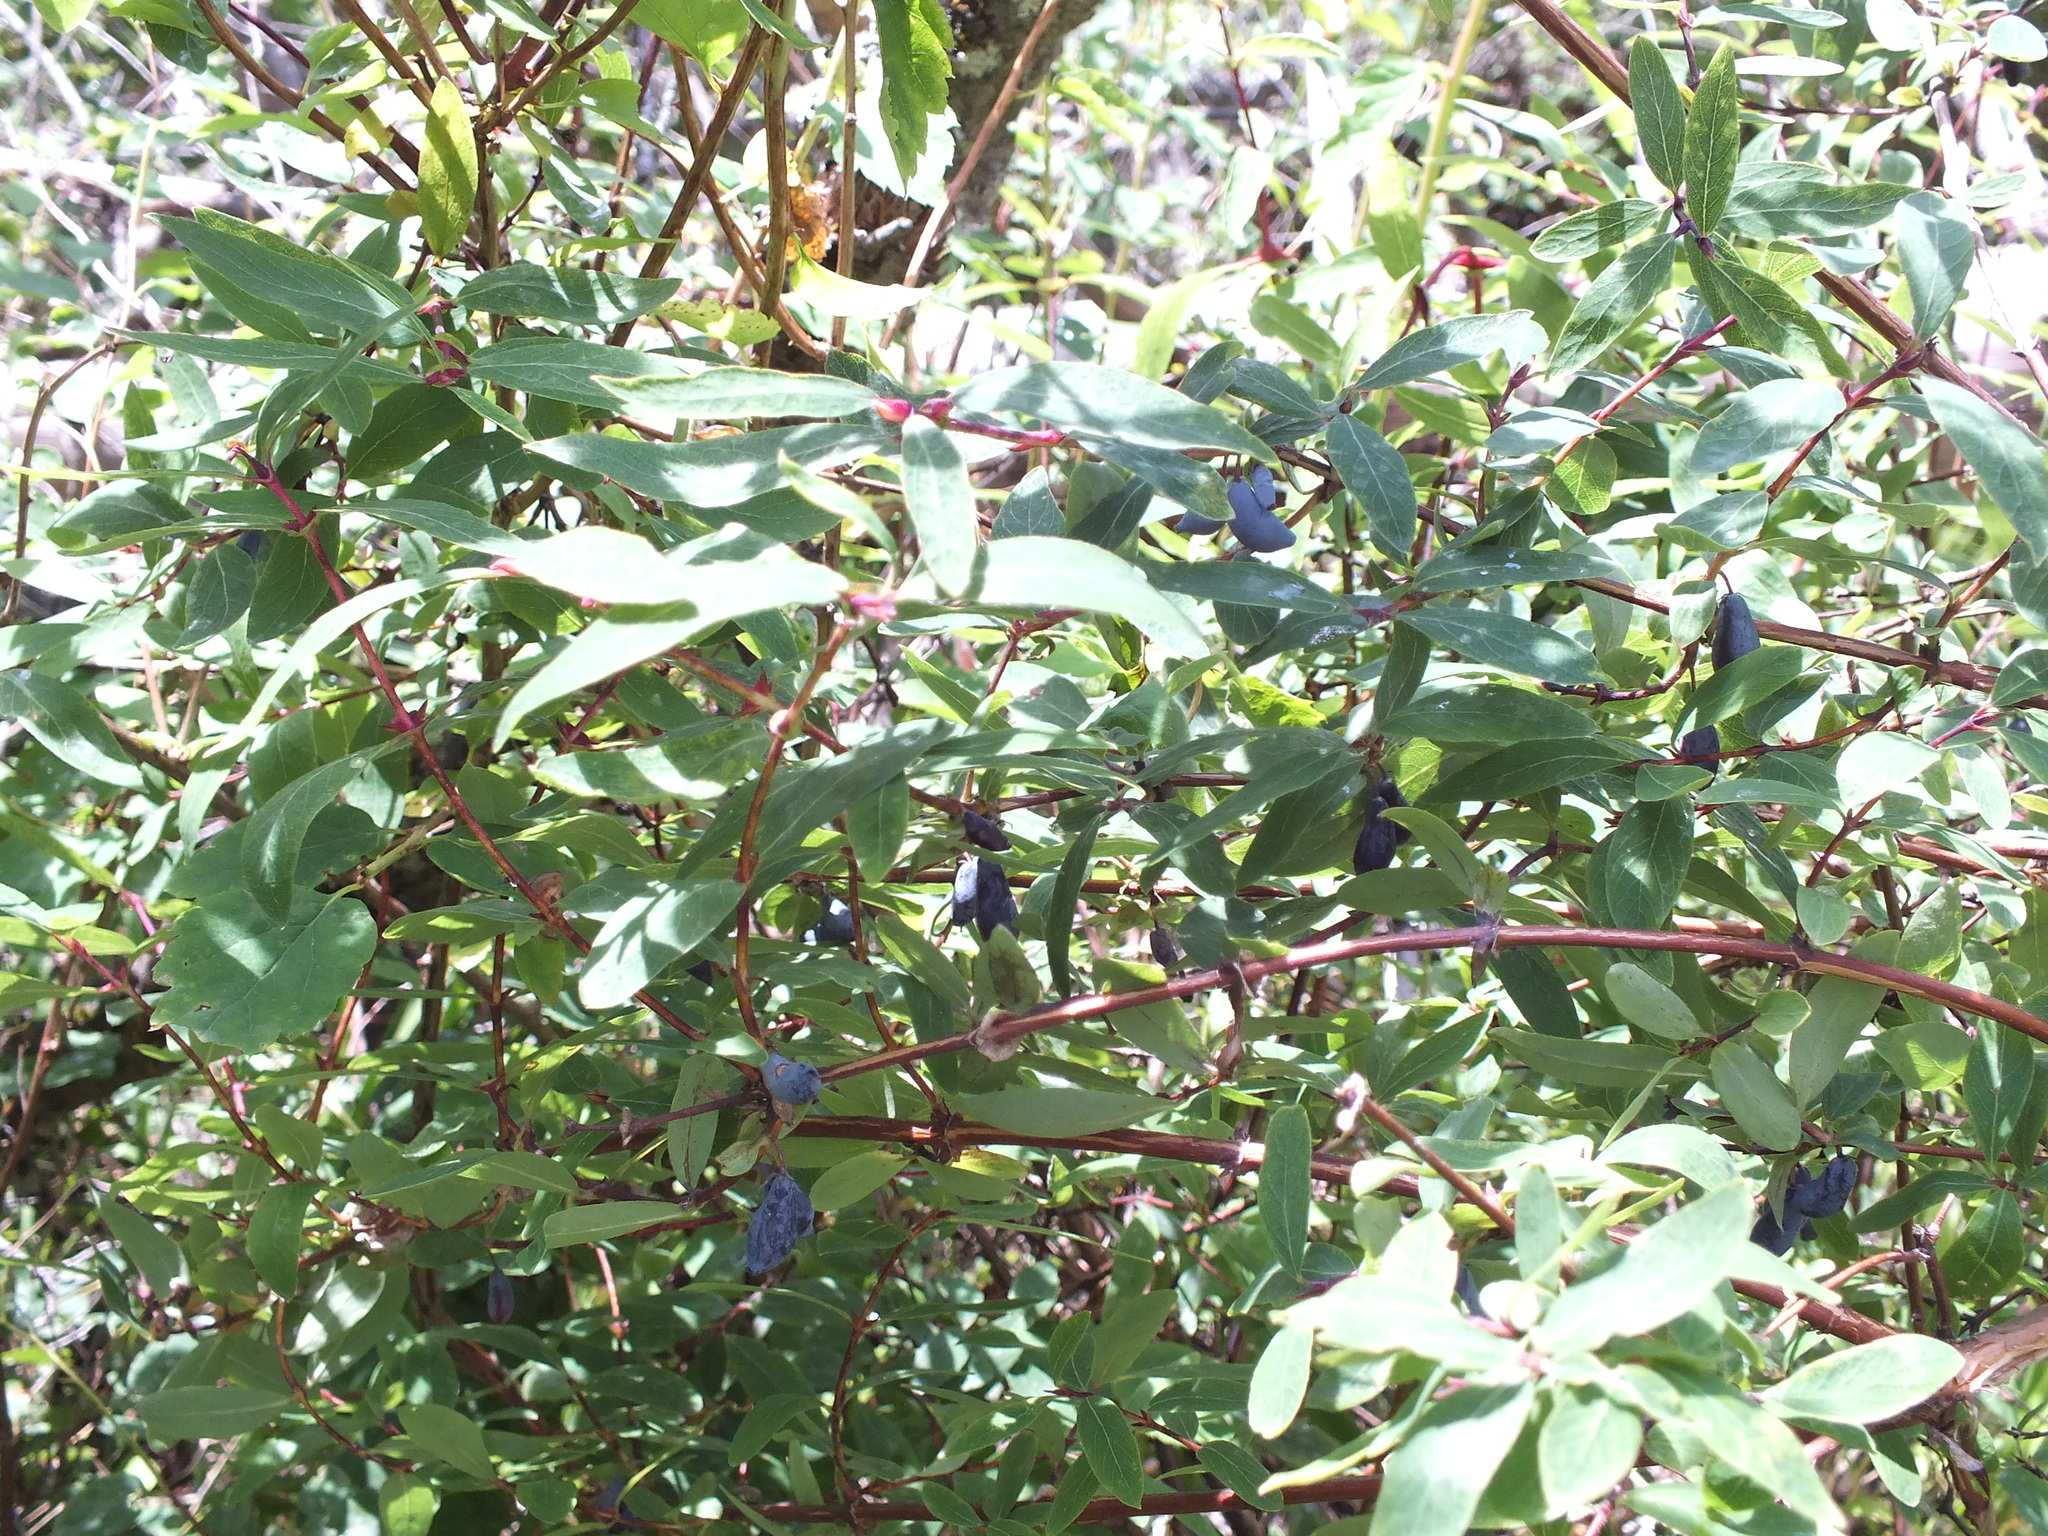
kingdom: Plantae
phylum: Tracheophyta
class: Magnoliopsida
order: Dipsacales
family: Caprifoliaceae
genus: Lonicera
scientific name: Lonicera caerulea
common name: Blue honeysuckle
